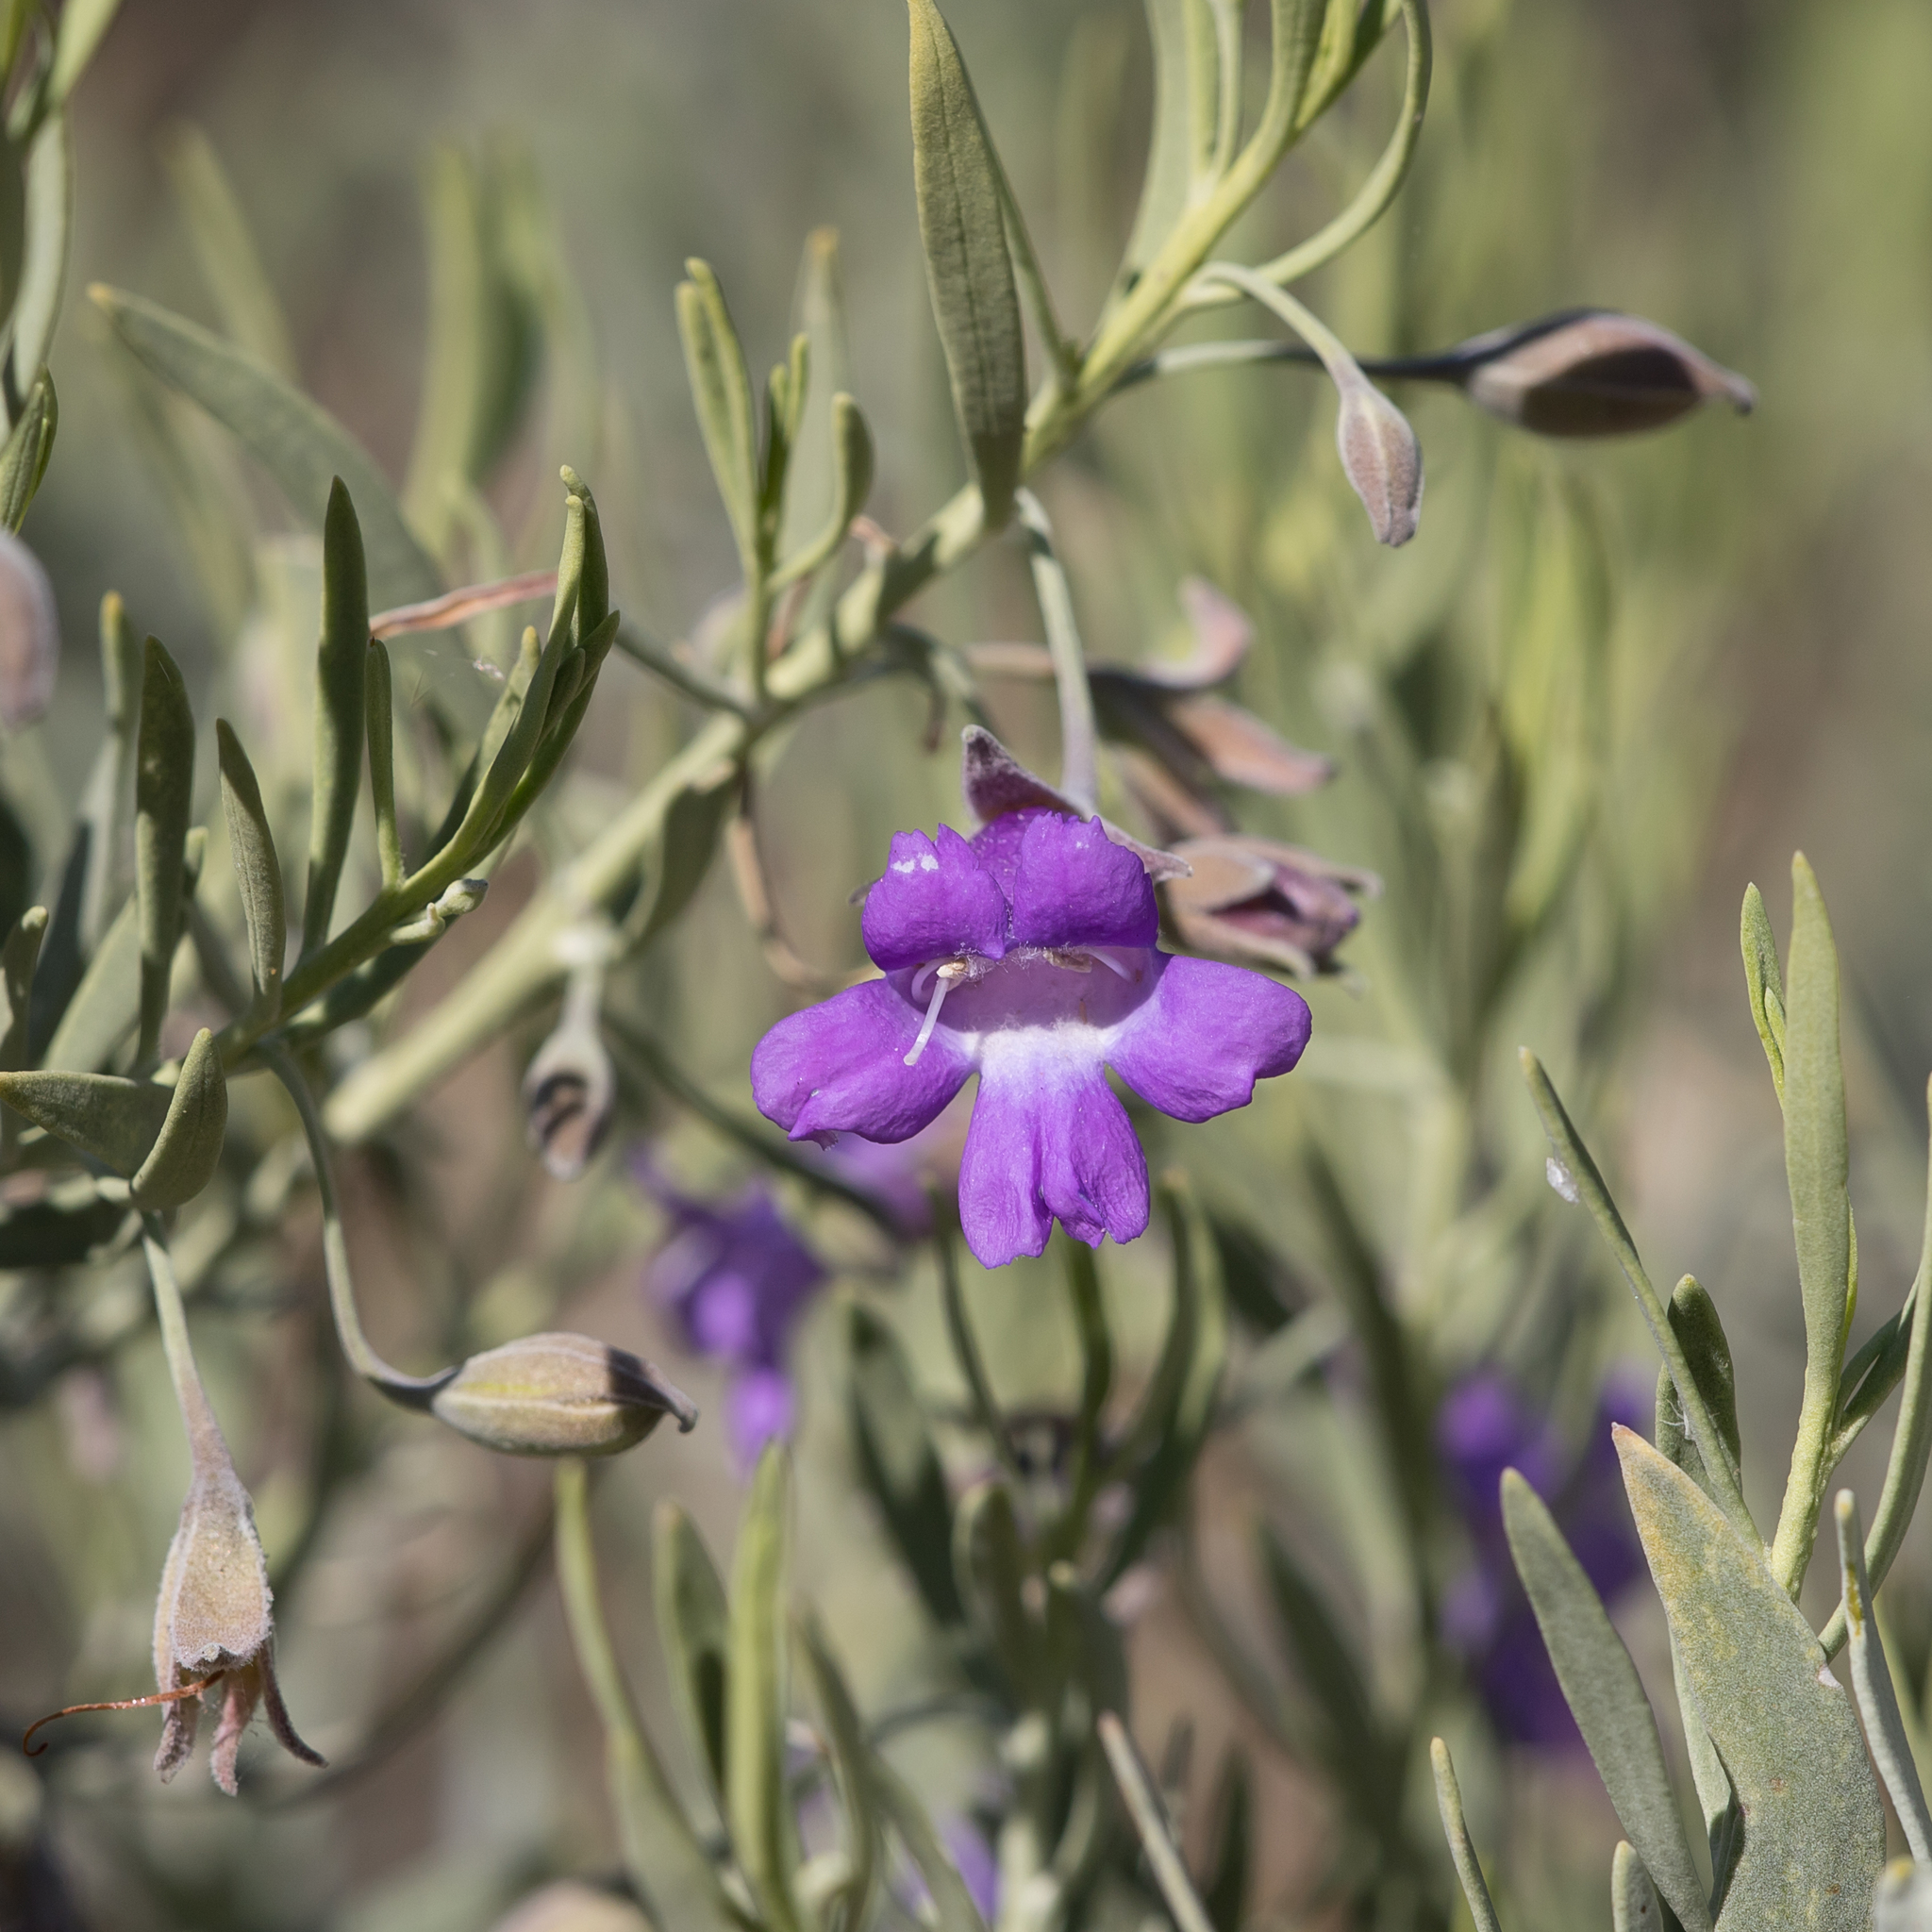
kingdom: Plantae
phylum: Tracheophyta
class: Magnoliopsida
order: Lamiales
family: Scrophulariaceae
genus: Eremophila
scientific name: Eremophila bowmanii
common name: Silver turkeybush
